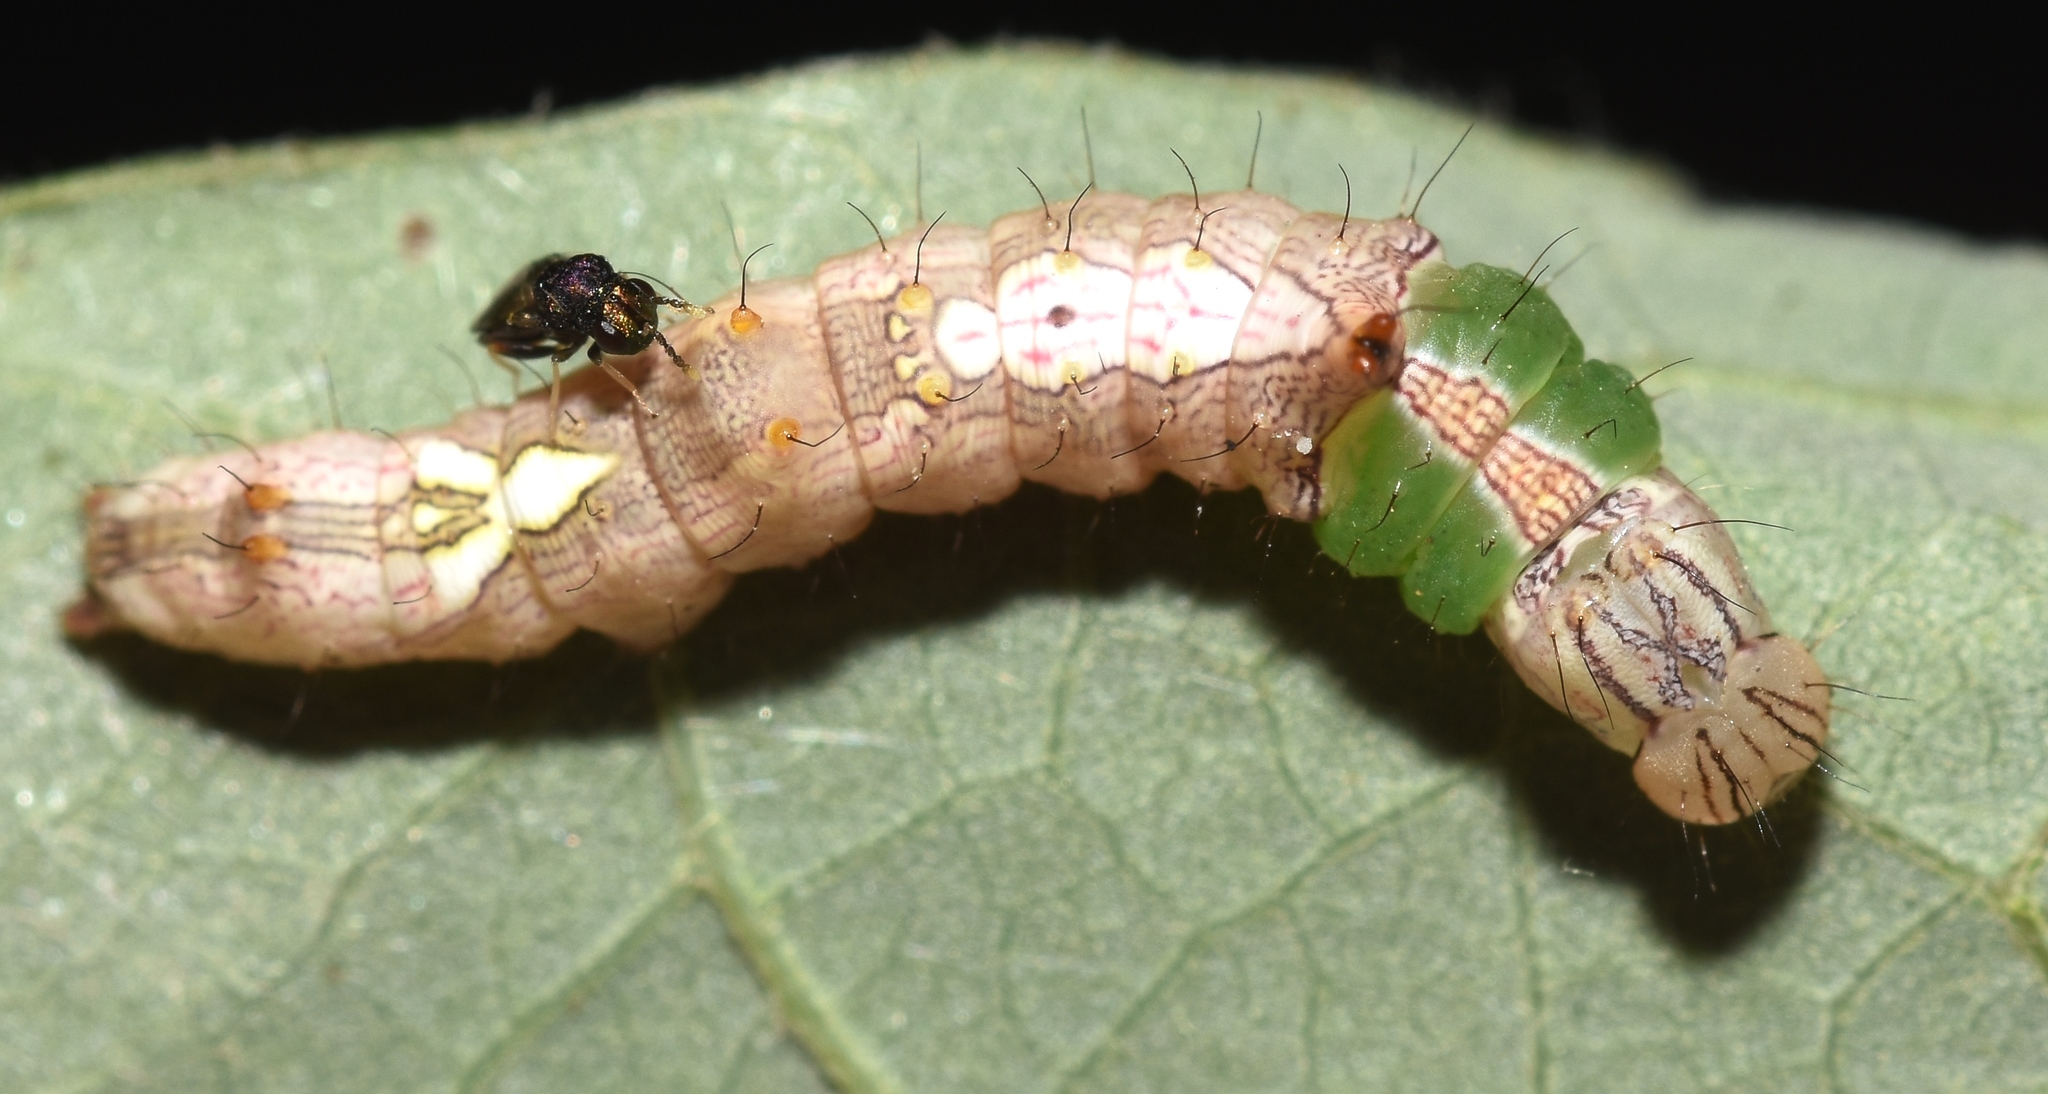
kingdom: Animalia
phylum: Arthropoda
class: Insecta
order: Lepidoptera
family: Notodontidae
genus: Schizura
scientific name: Schizura ipomaeae
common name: Morning-glory prominent
